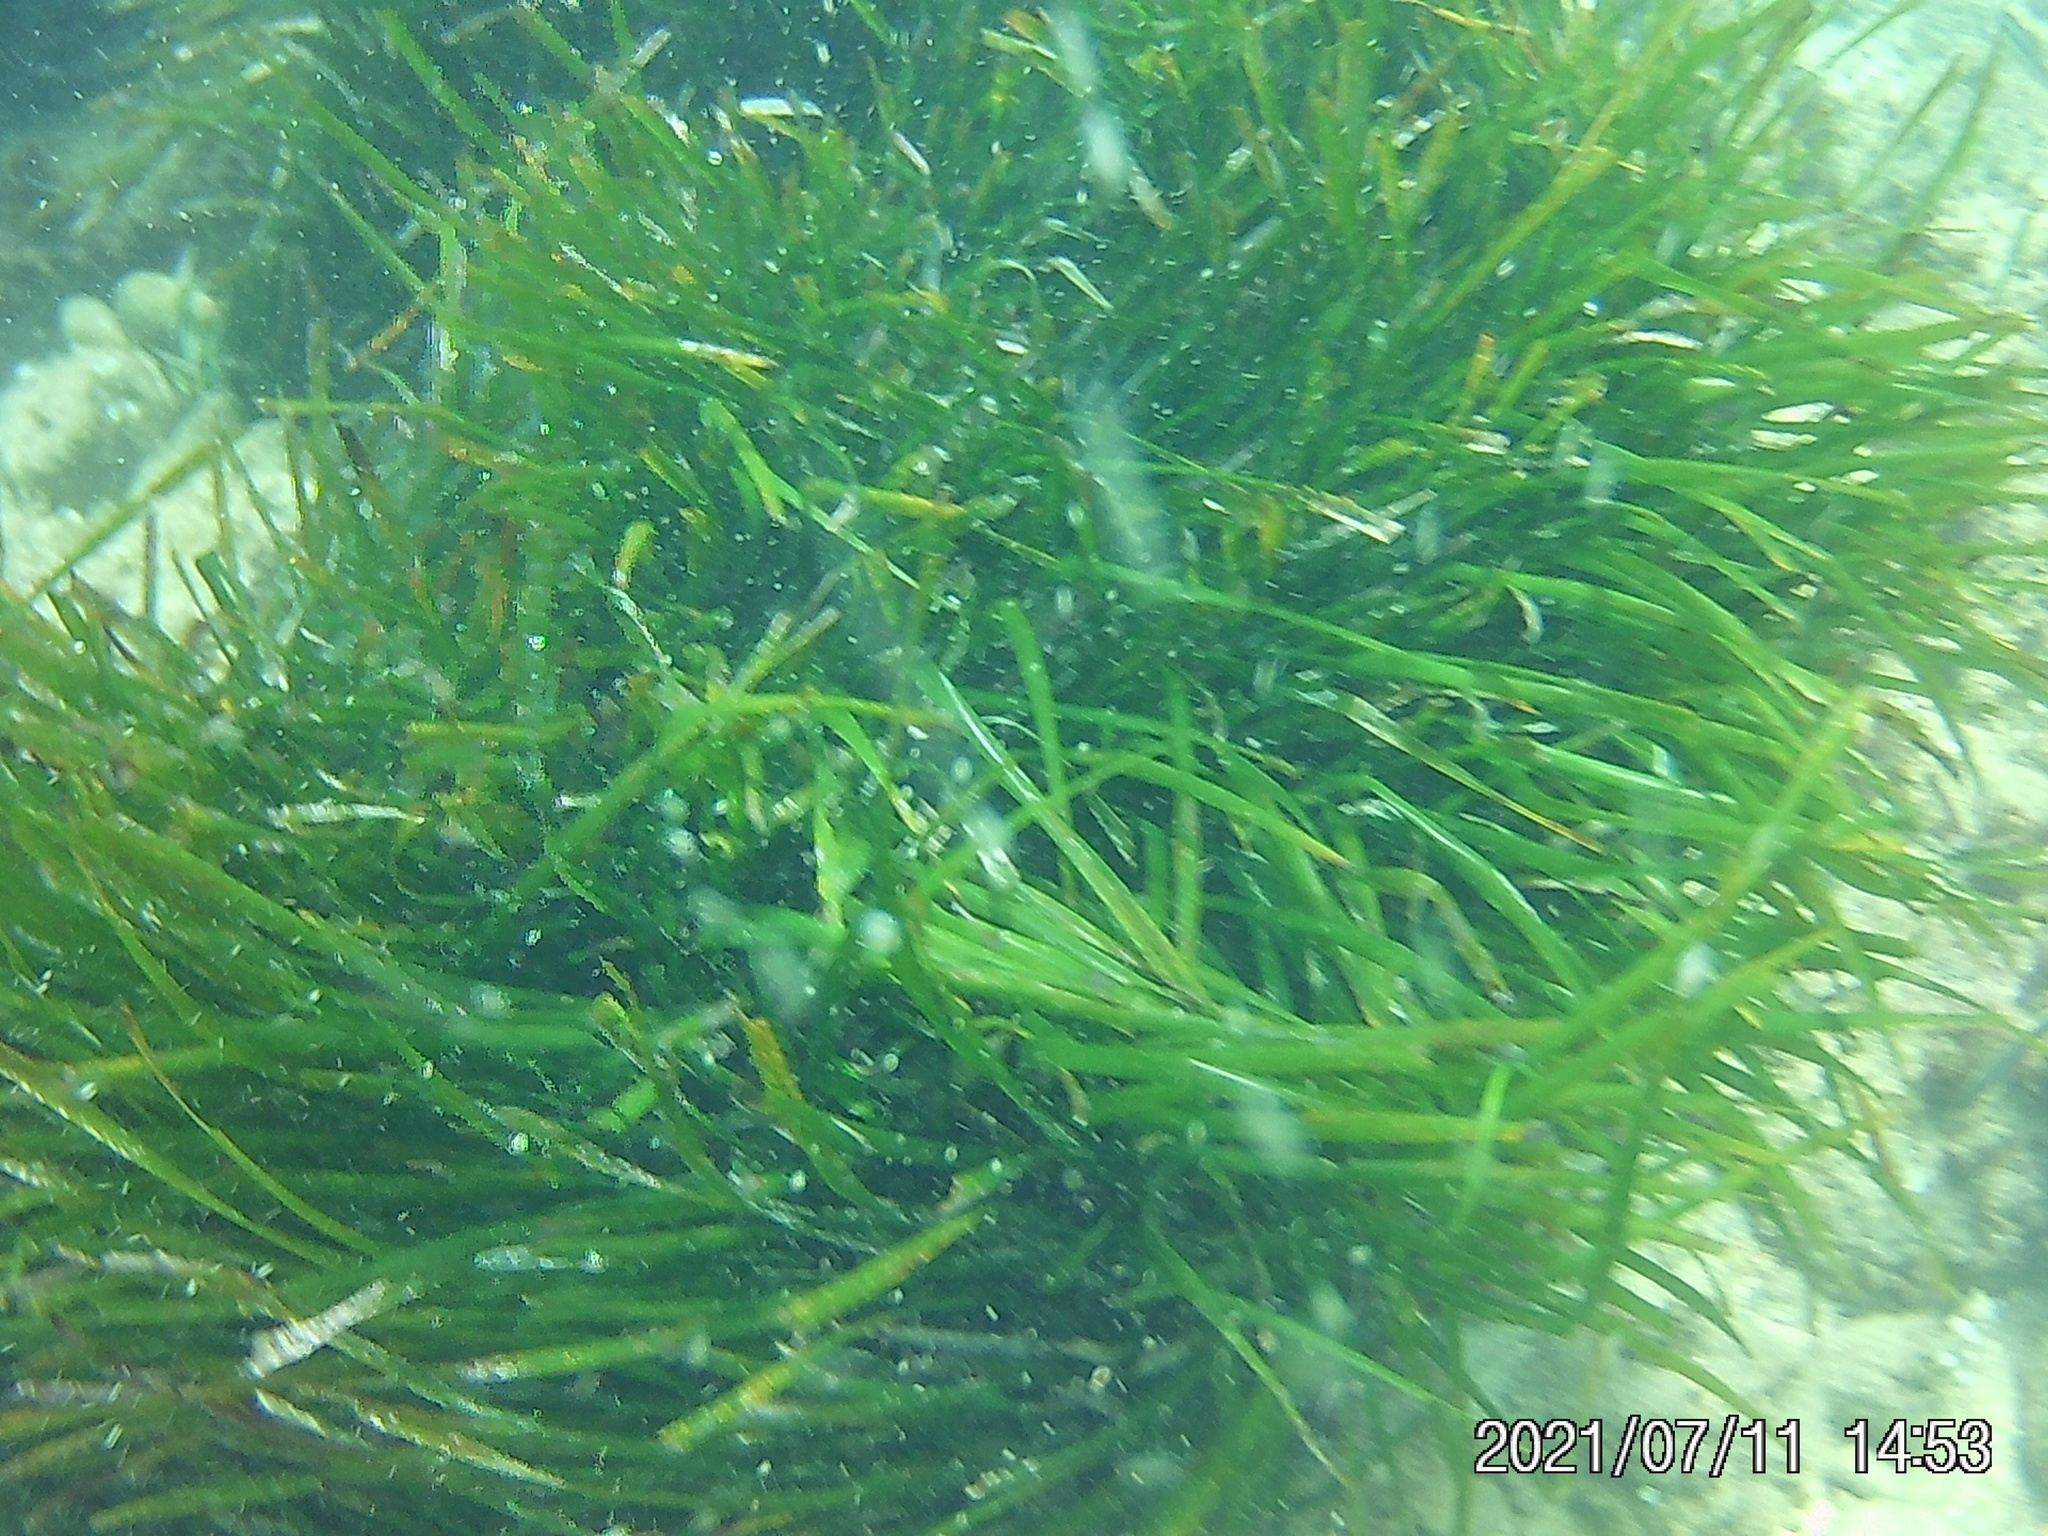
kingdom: Plantae
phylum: Tracheophyta
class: Liliopsida
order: Alismatales
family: Posidoniaceae
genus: Posidonia
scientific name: Posidonia oceanica
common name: Mediterranean tapeweed
